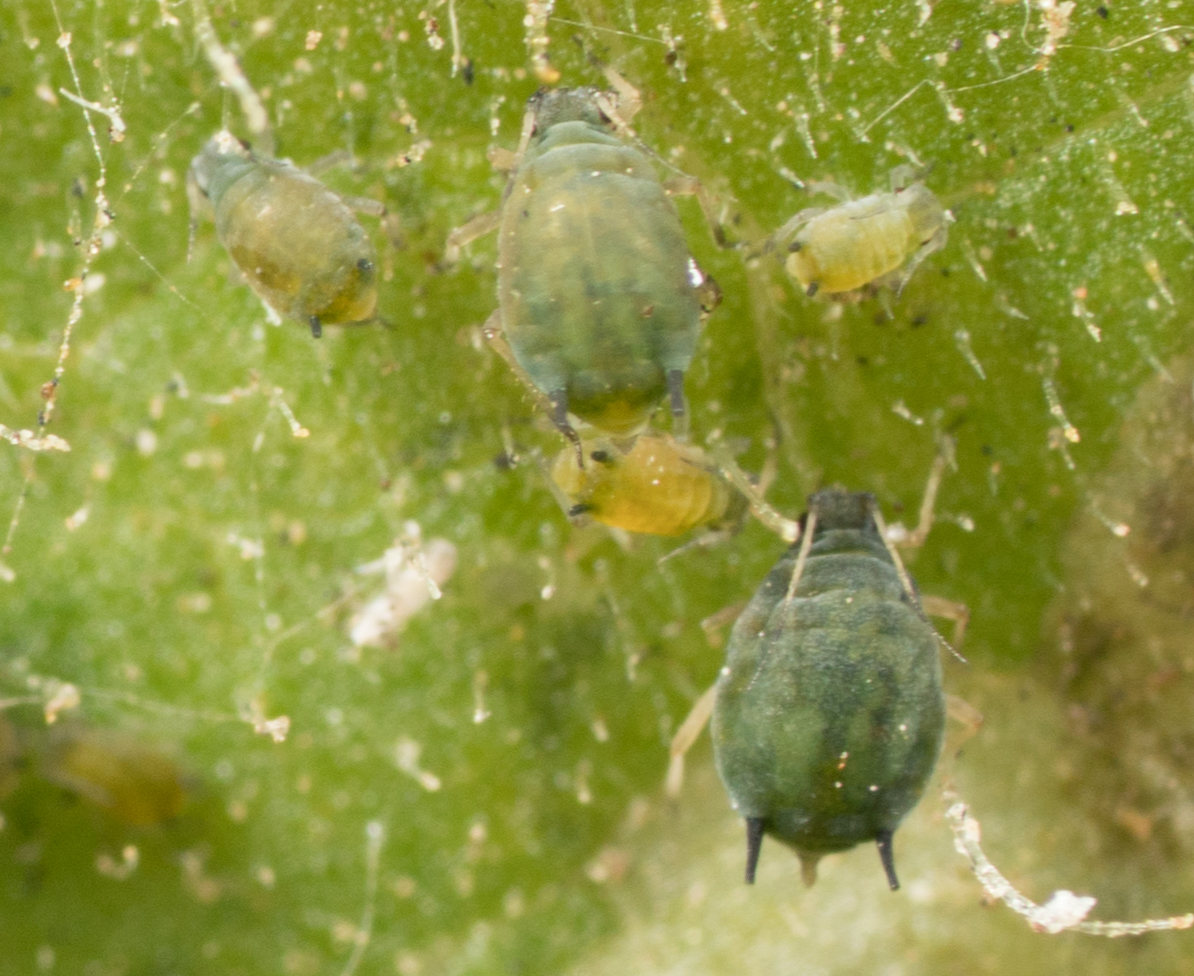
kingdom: Animalia
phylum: Arthropoda
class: Insecta
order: Hemiptera
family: Aphididae
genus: Aphis
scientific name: Aphis gossypii
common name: Melon aphid
